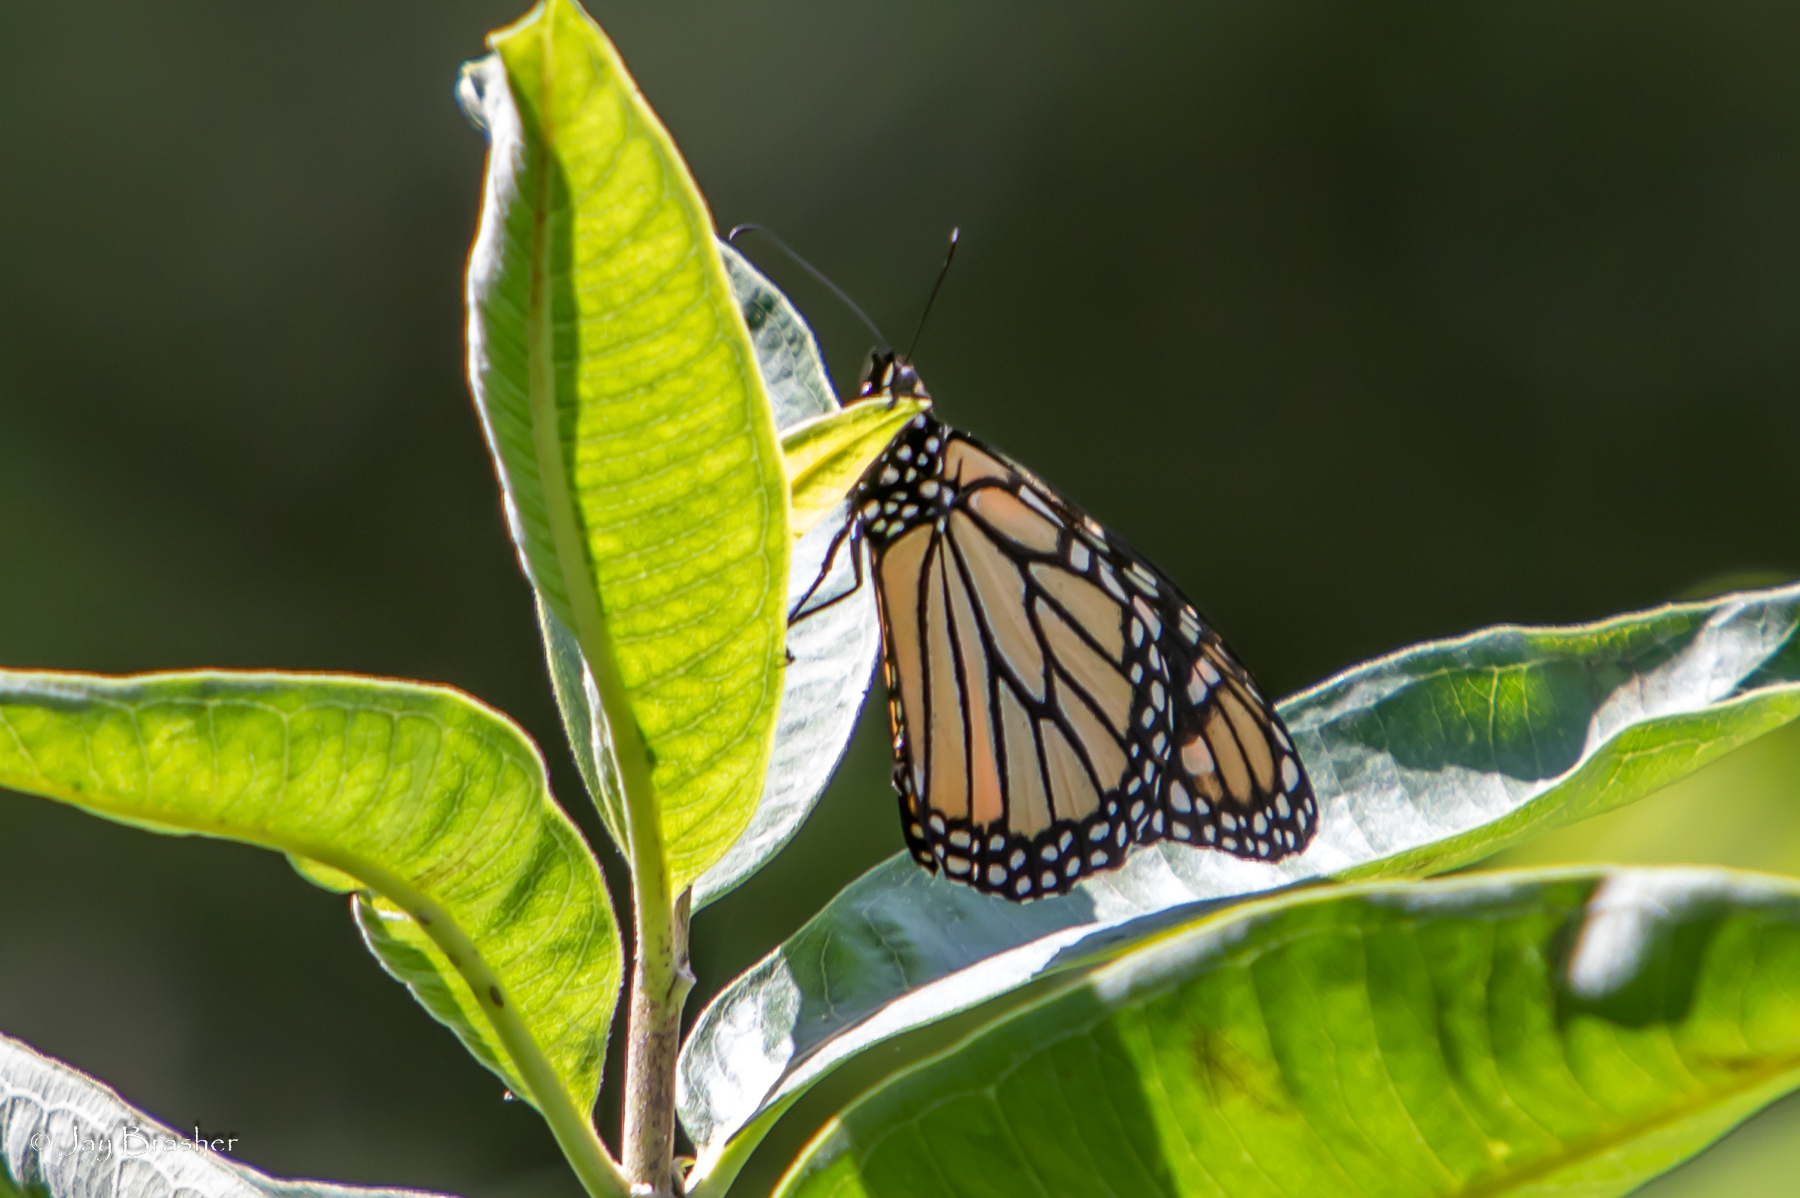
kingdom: Animalia
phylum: Arthropoda
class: Insecta
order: Lepidoptera
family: Nymphalidae
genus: Danaus
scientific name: Danaus plexippus
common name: Monarch
